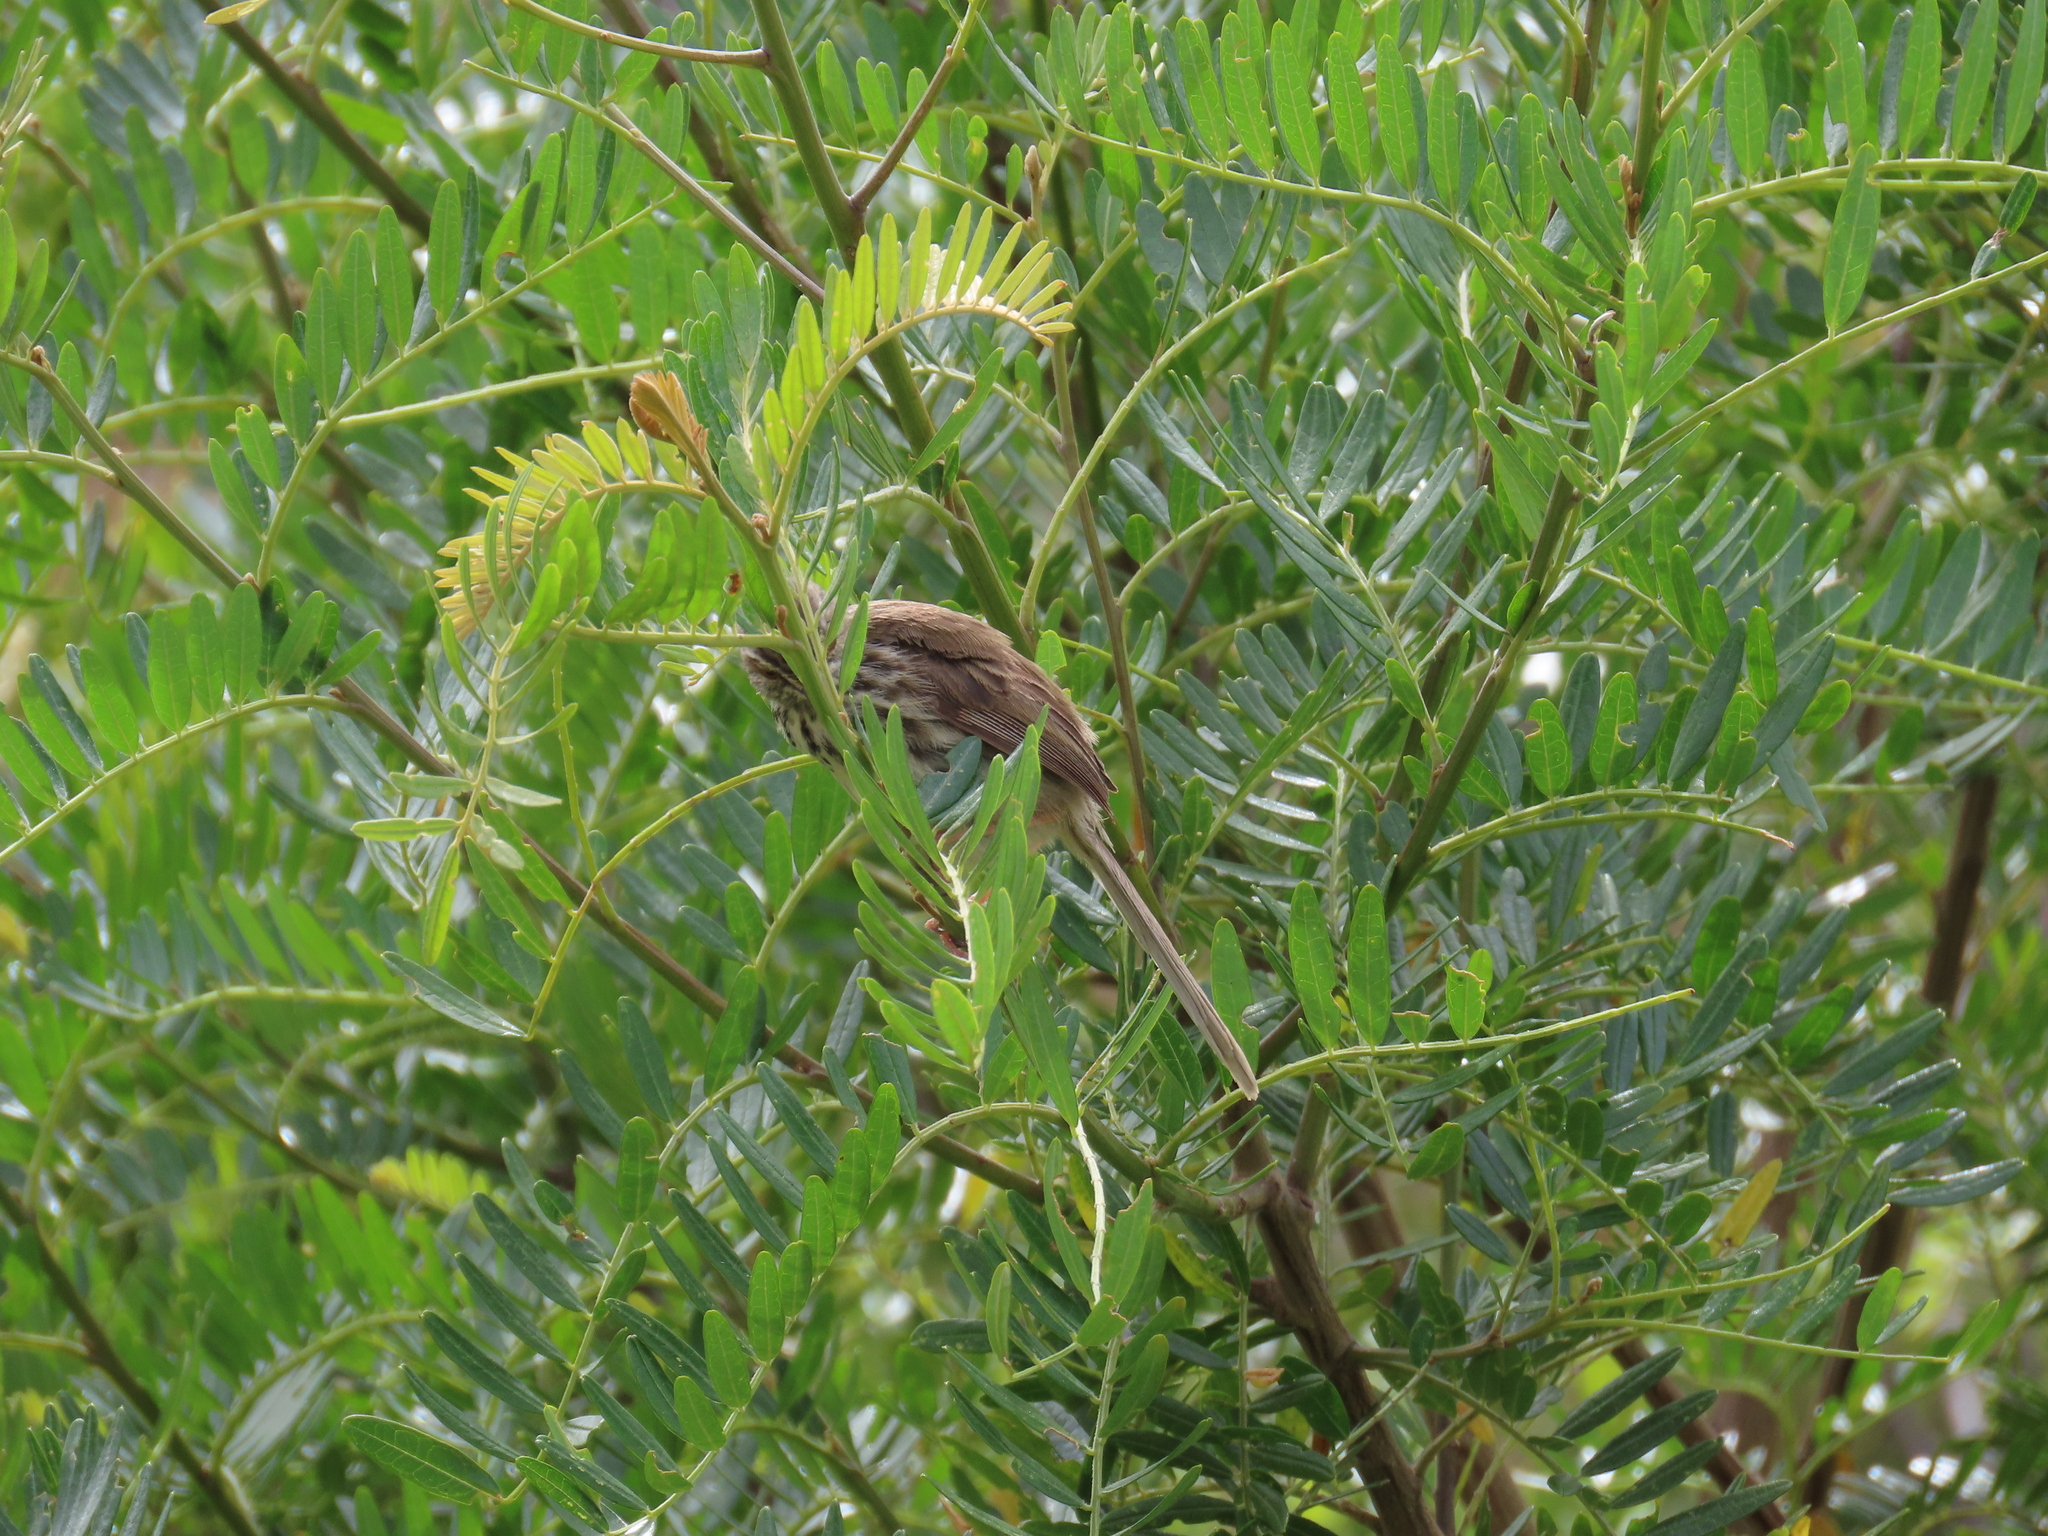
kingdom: Animalia
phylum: Chordata
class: Aves
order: Passeriformes
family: Cisticolidae
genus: Prinia
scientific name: Prinia maculosa
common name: Karoo prinia
